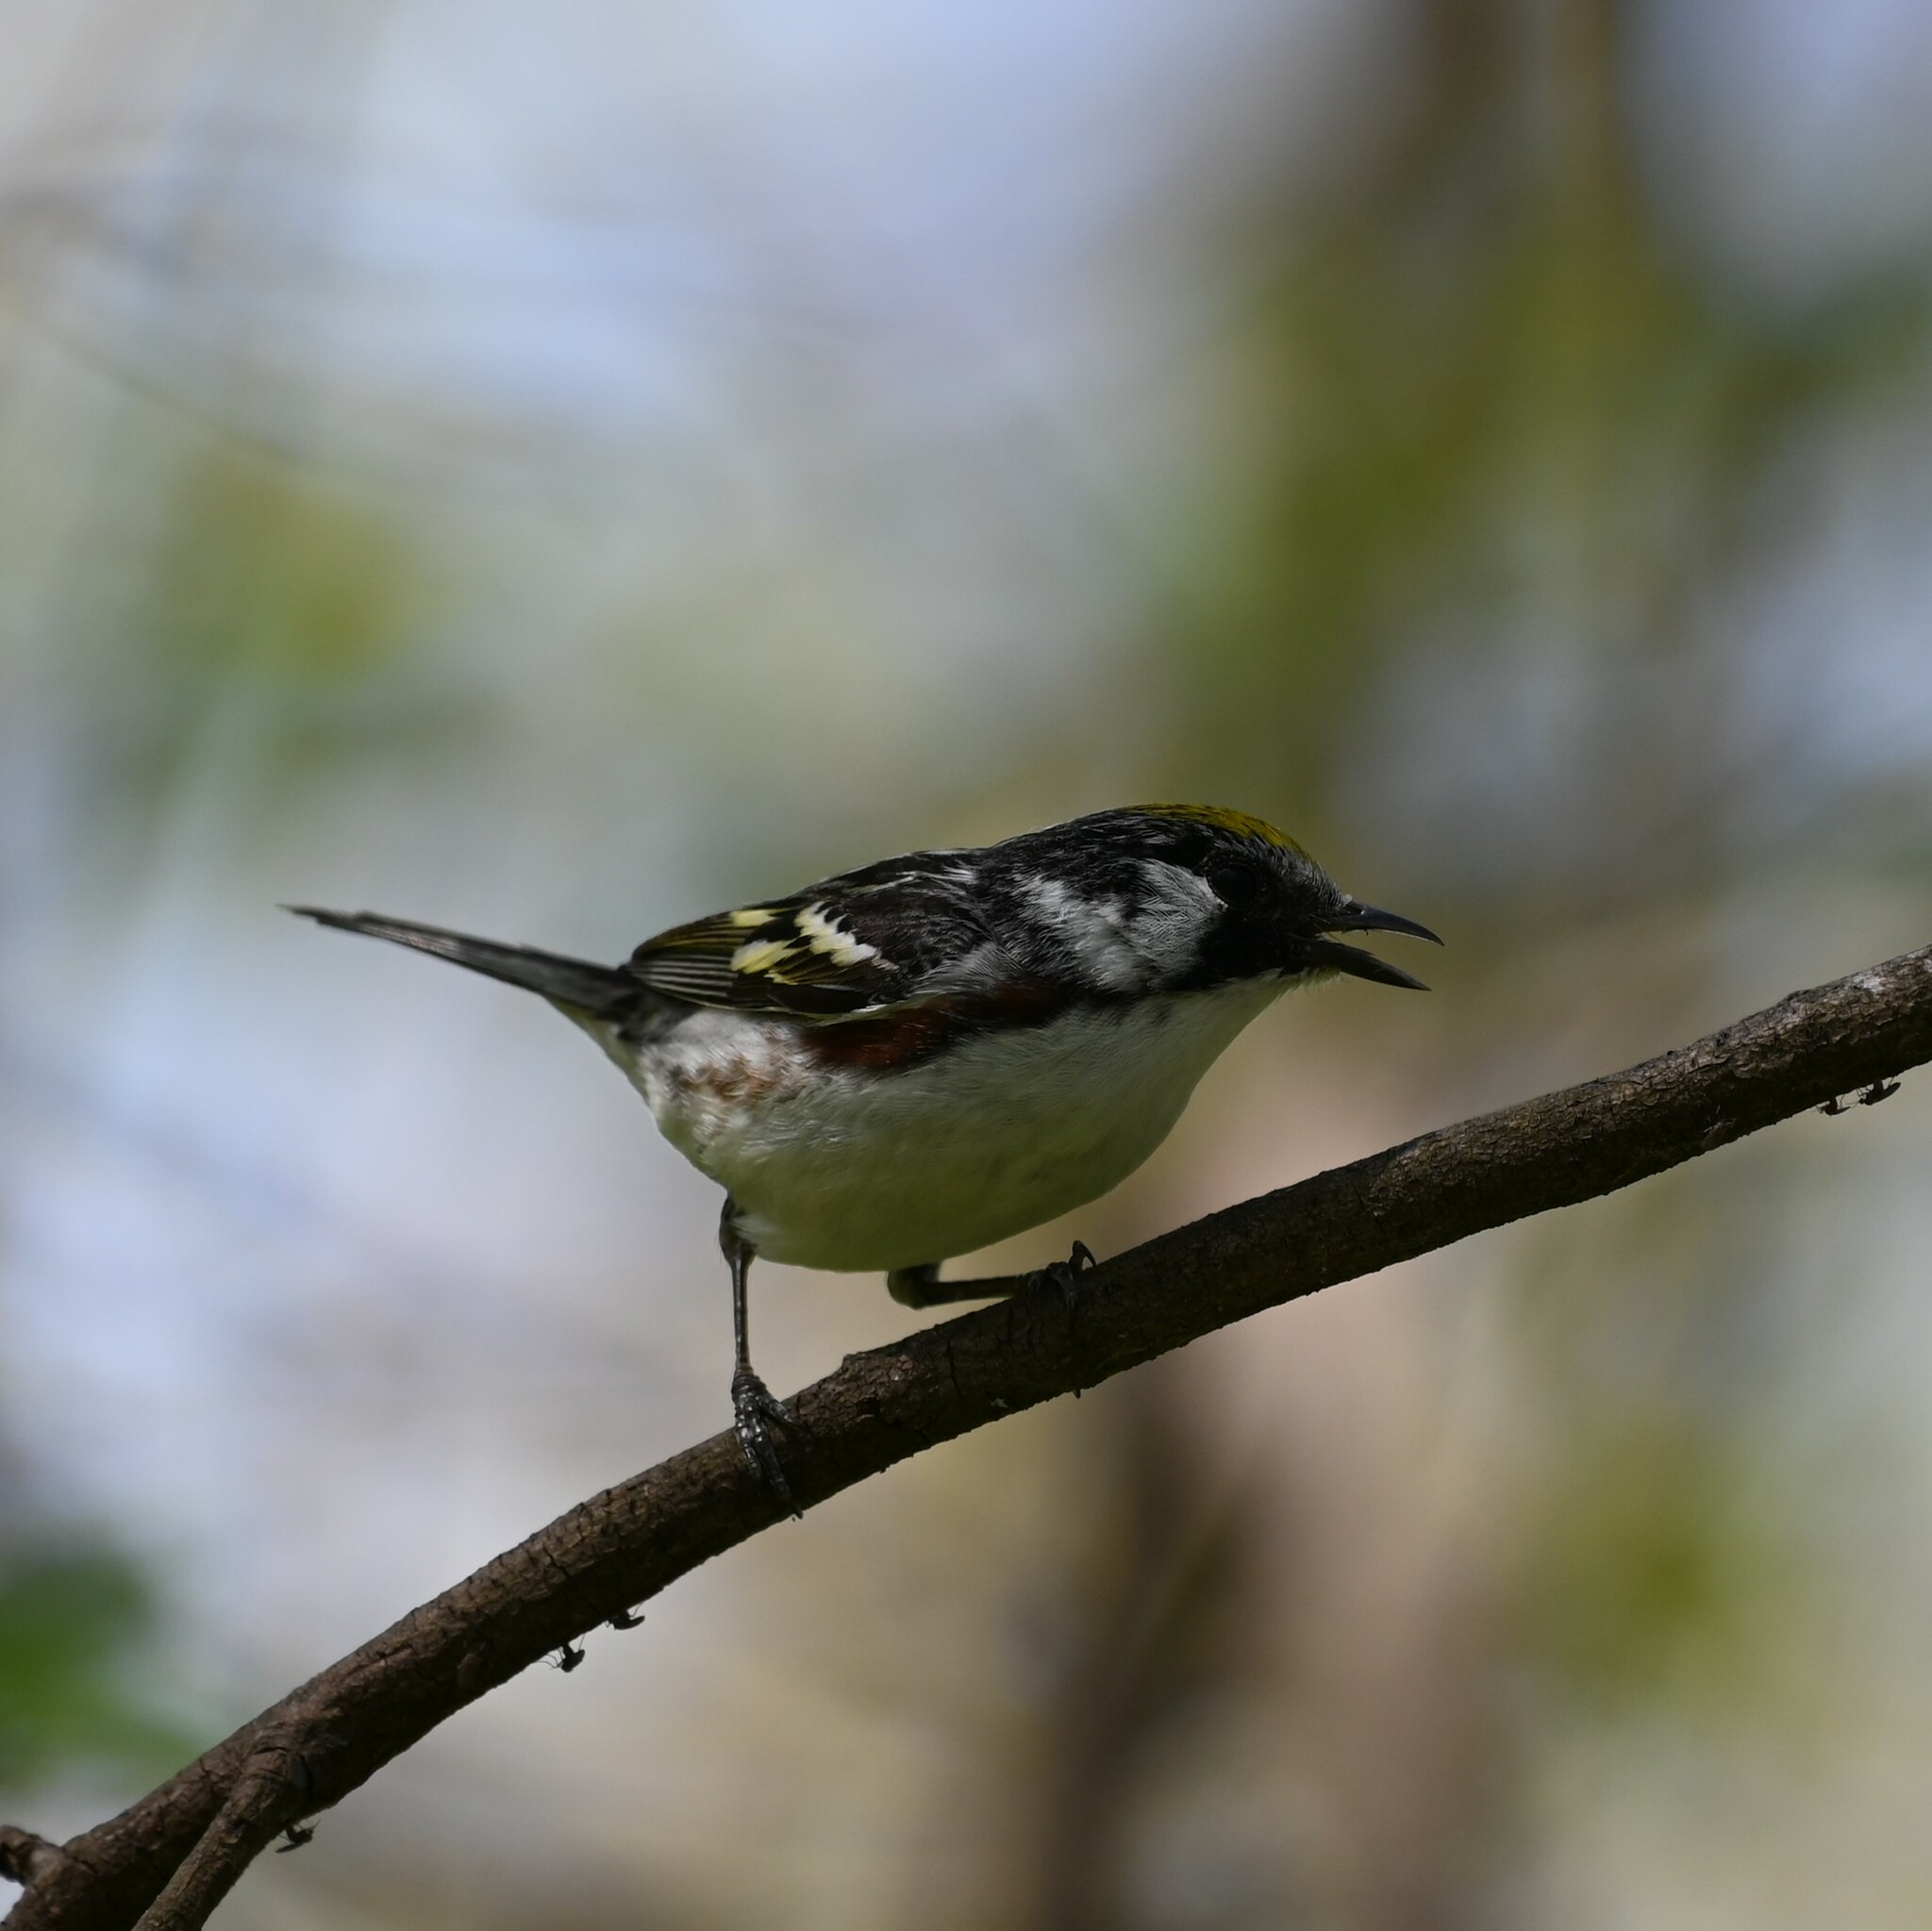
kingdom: Animalia
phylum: Chordata
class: Aves
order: Passeriformes
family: Parulidae
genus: Setophaga
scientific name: Setophaga pensylvanica
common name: Chestnut-sided warbler
